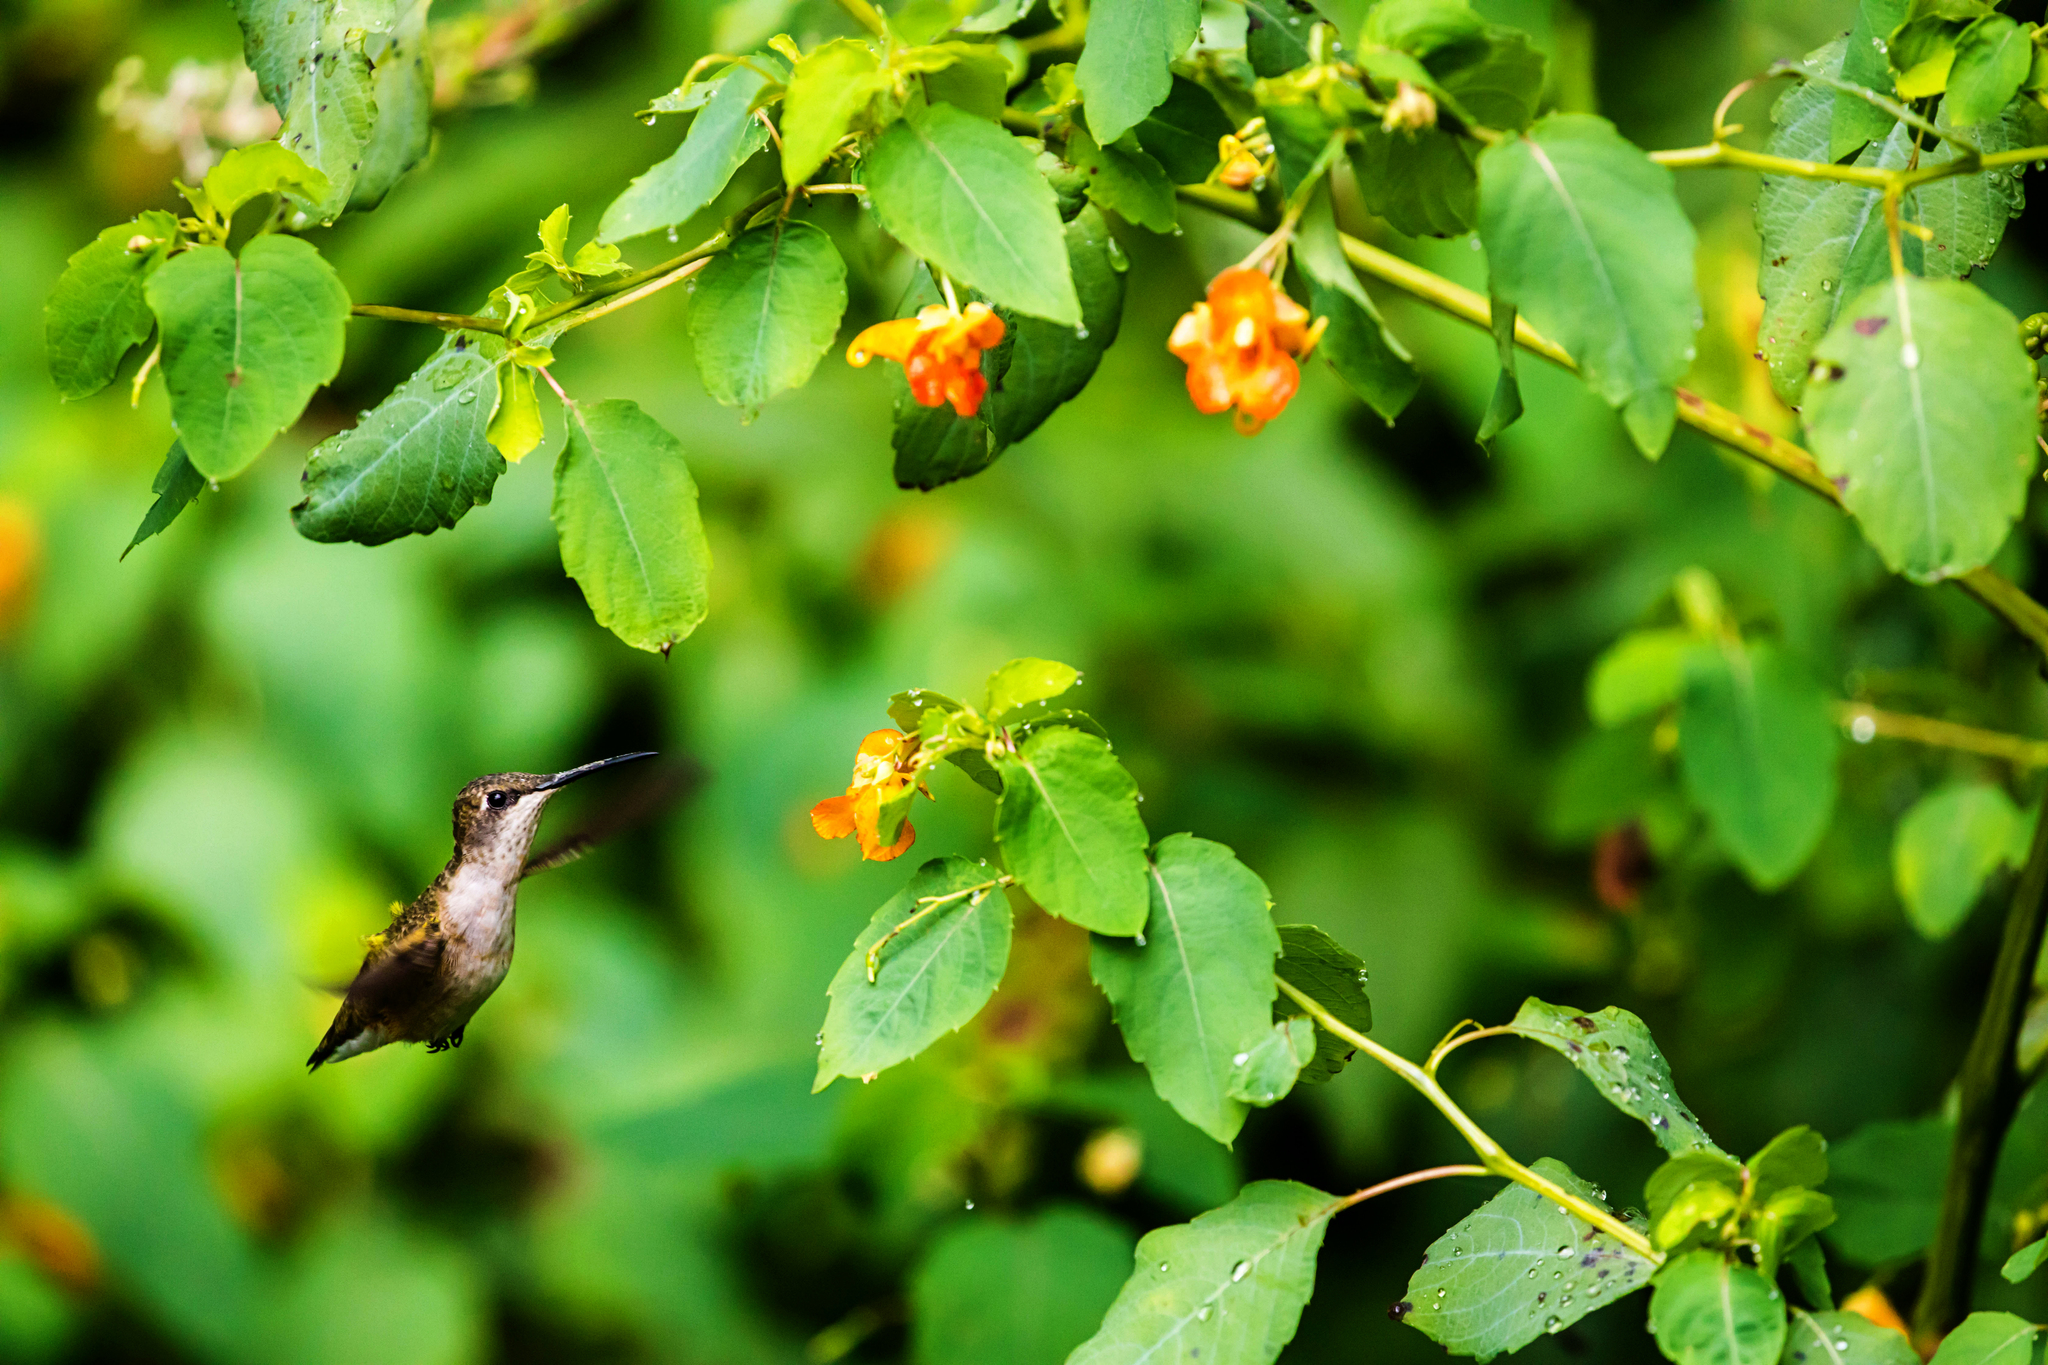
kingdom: Animalia
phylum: Chordata
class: Aves
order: Apodiformes
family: Trochilidae
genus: Archilochus
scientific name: Archilochus colubris
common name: Ruby-throated hummingbird
